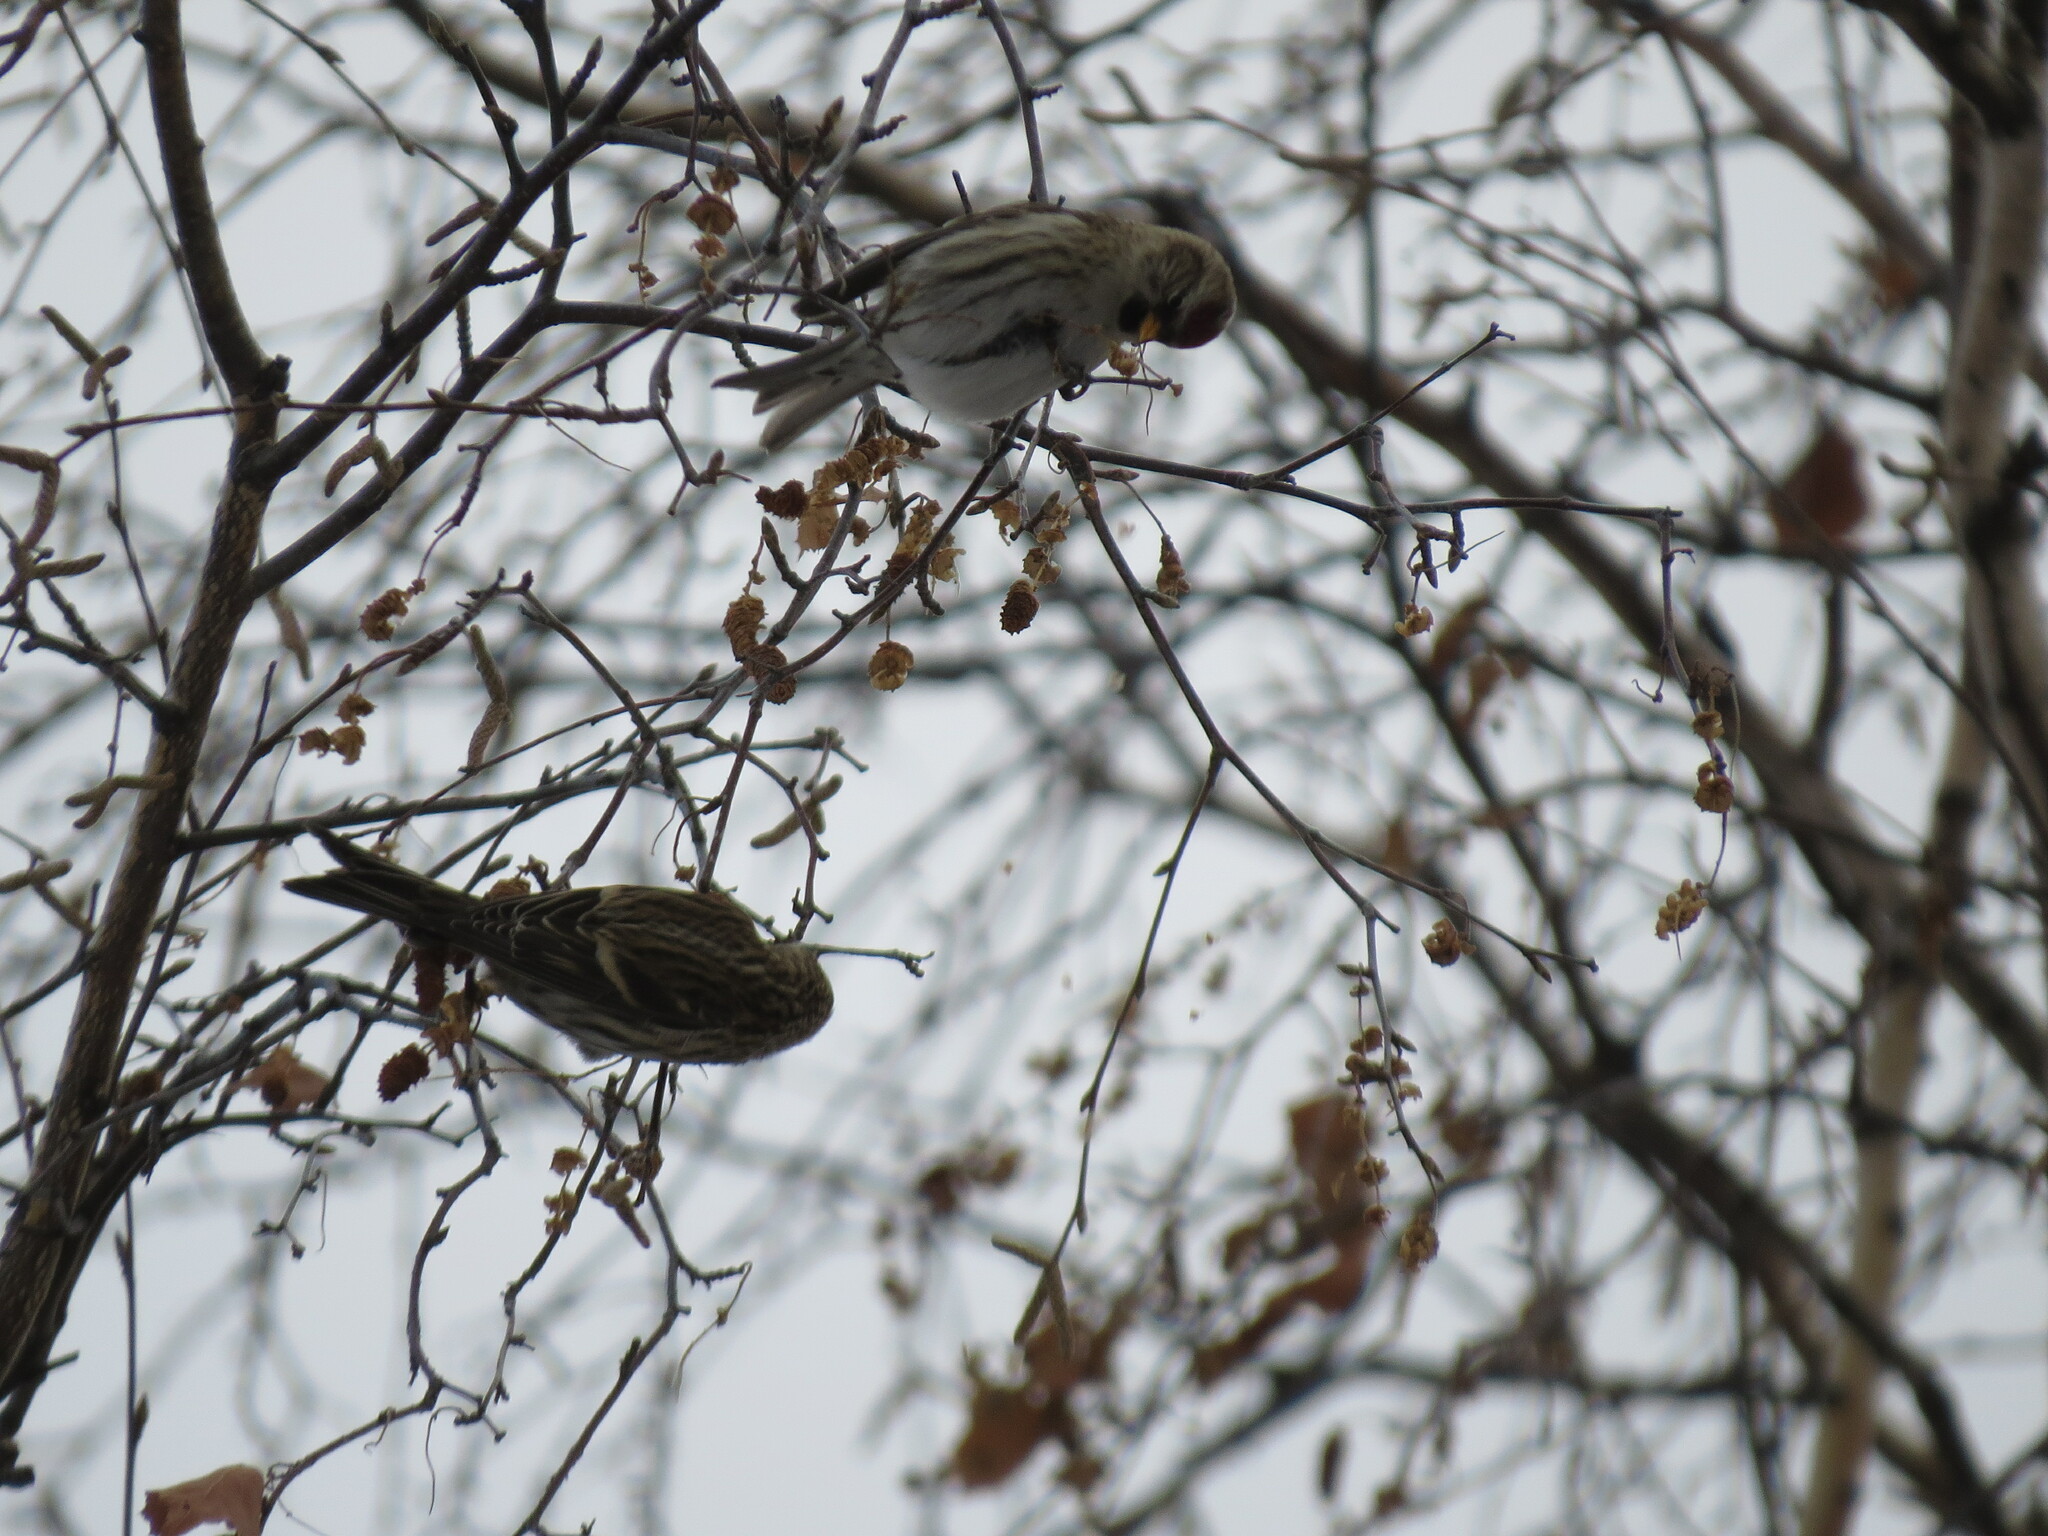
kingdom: Animalia
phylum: Chordata
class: Aves
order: Passeriformes
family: Fringillidae
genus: Acanthis
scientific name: Acanthis flammea
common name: Common redpoll
